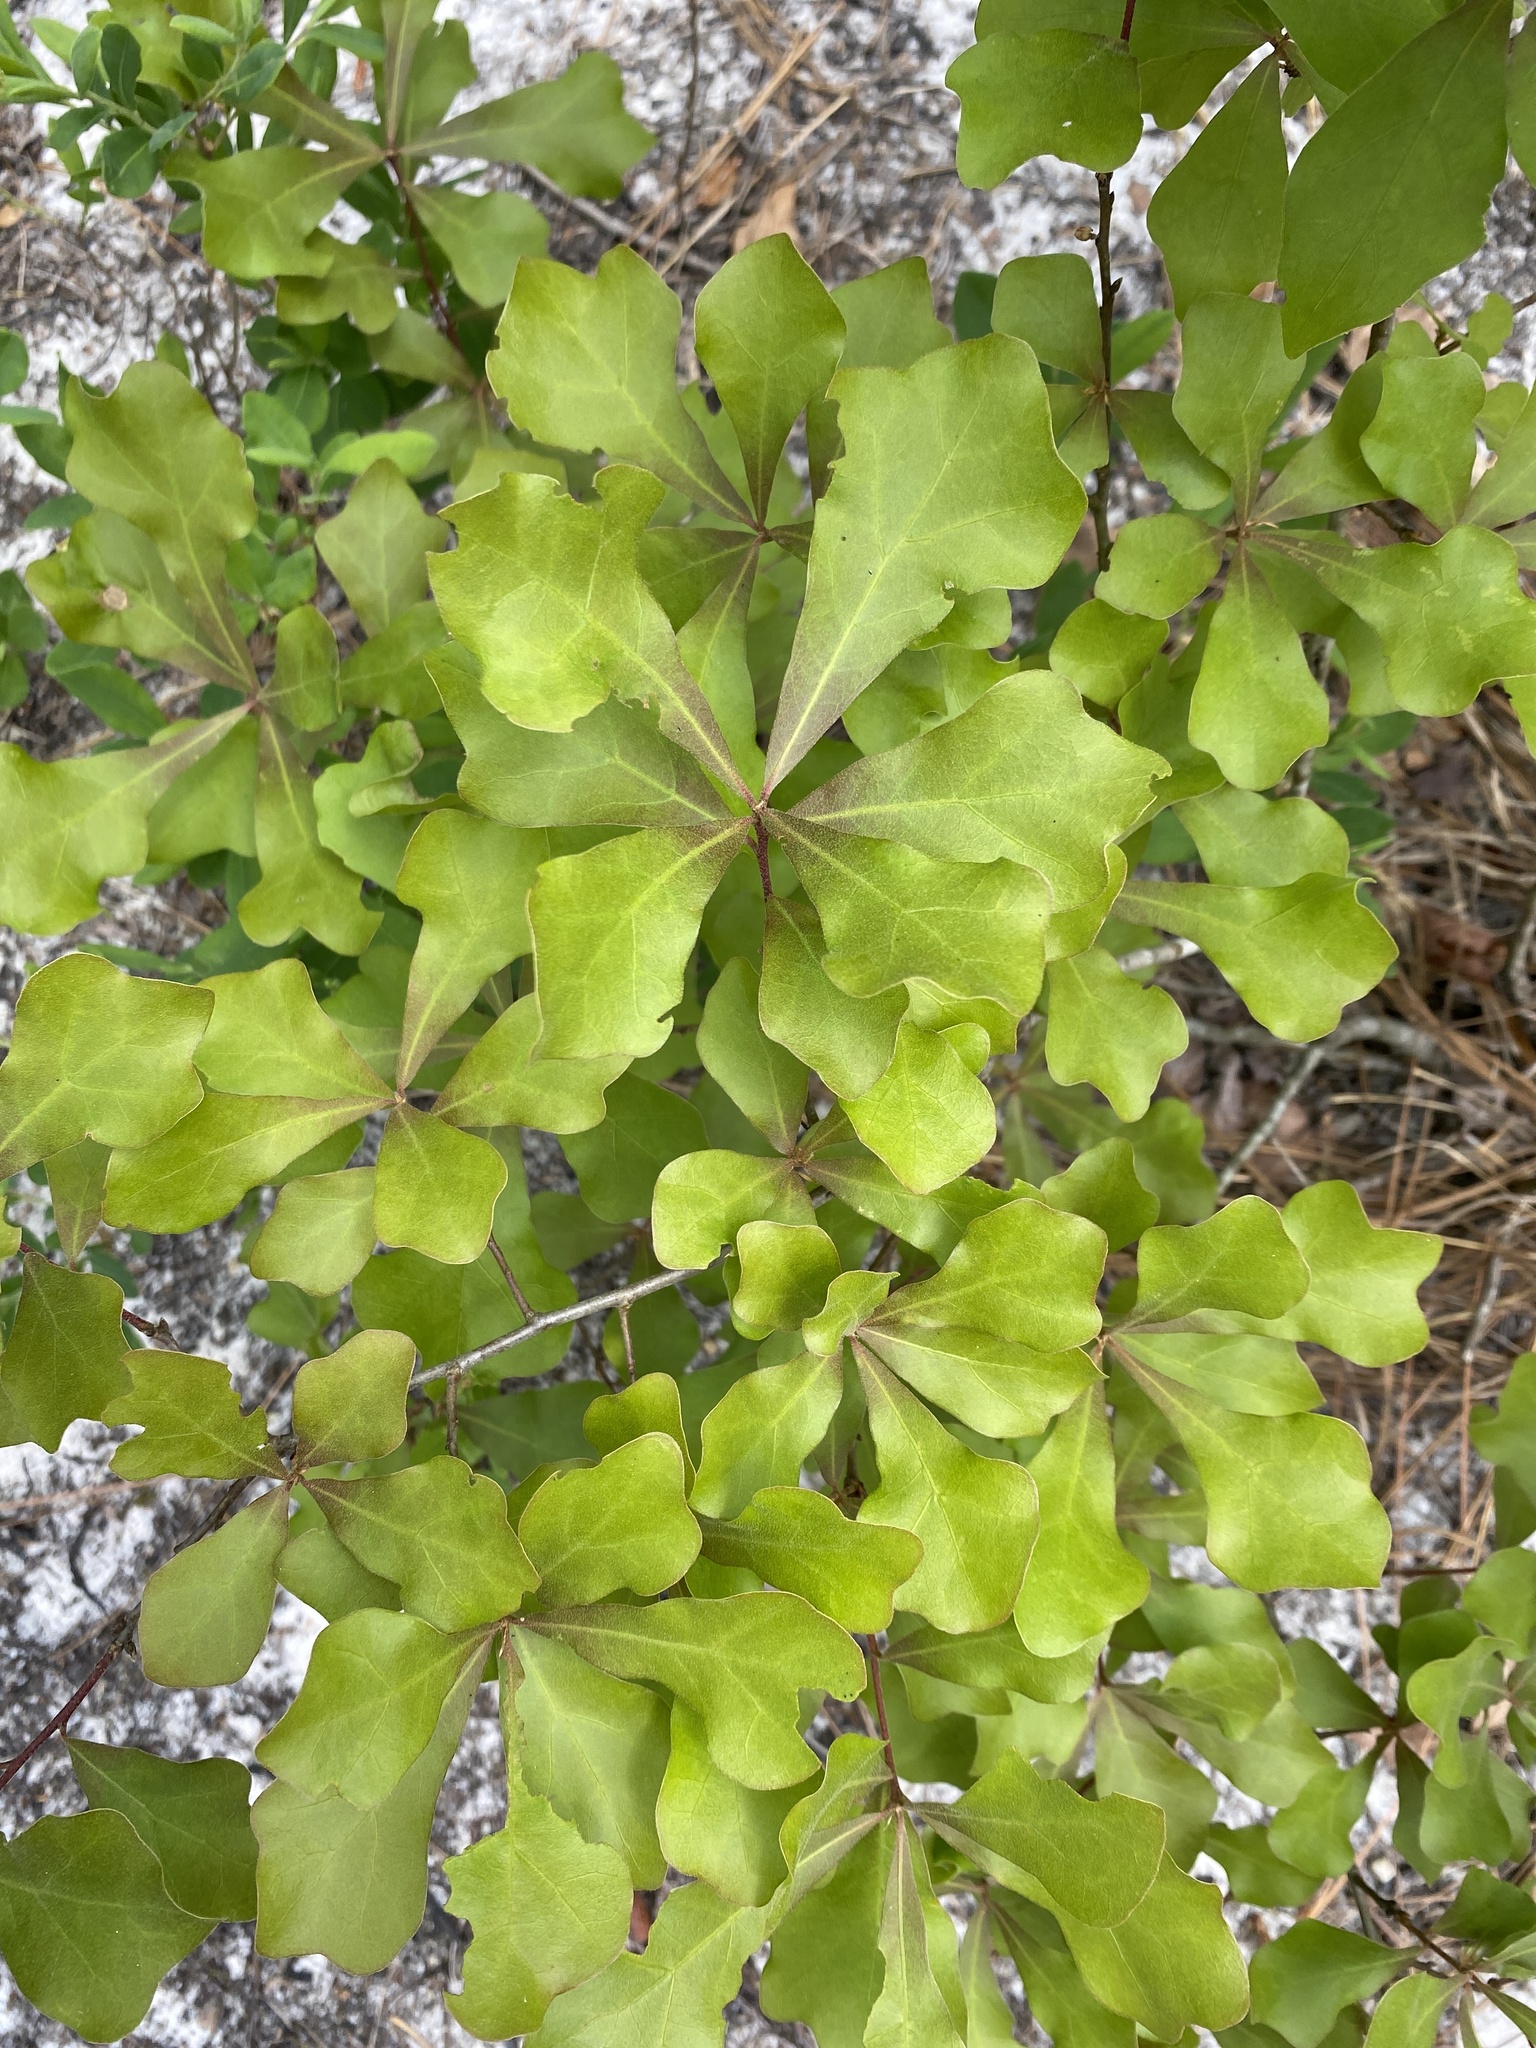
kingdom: Plantae
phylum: Tracheophyta
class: Magnoliopsida
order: Fagales
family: Fagaceae
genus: Quercus
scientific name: Quercus nigra
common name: Water oak
